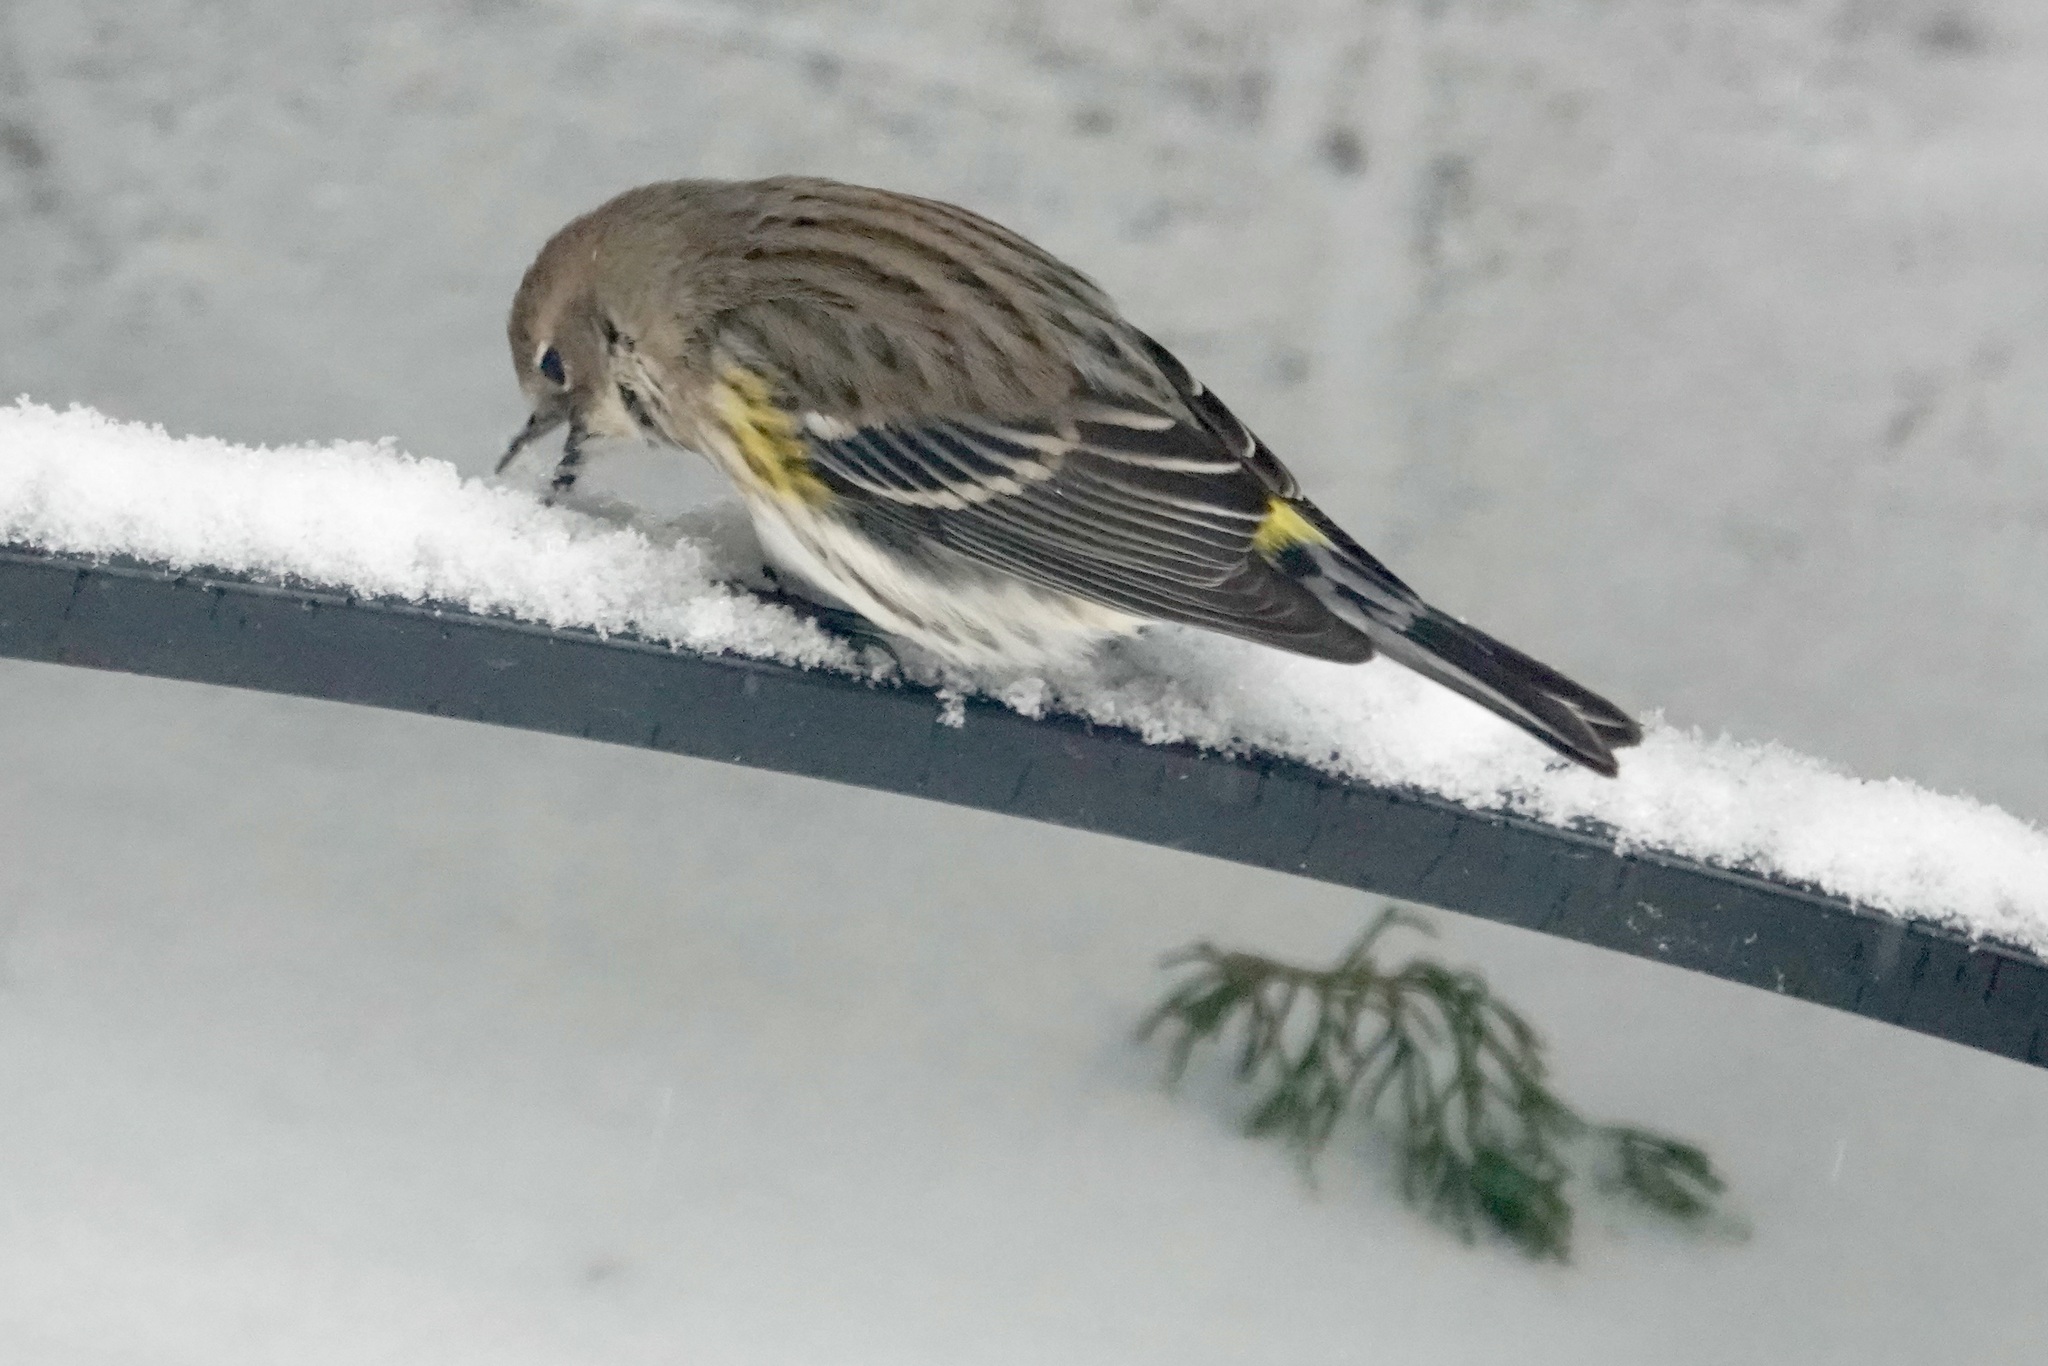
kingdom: Animalia
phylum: Chordata
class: Aves
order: Passeriformes
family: Parulidae
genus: Setophaga
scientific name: Setophaga coronata
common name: Myrtle warbler
